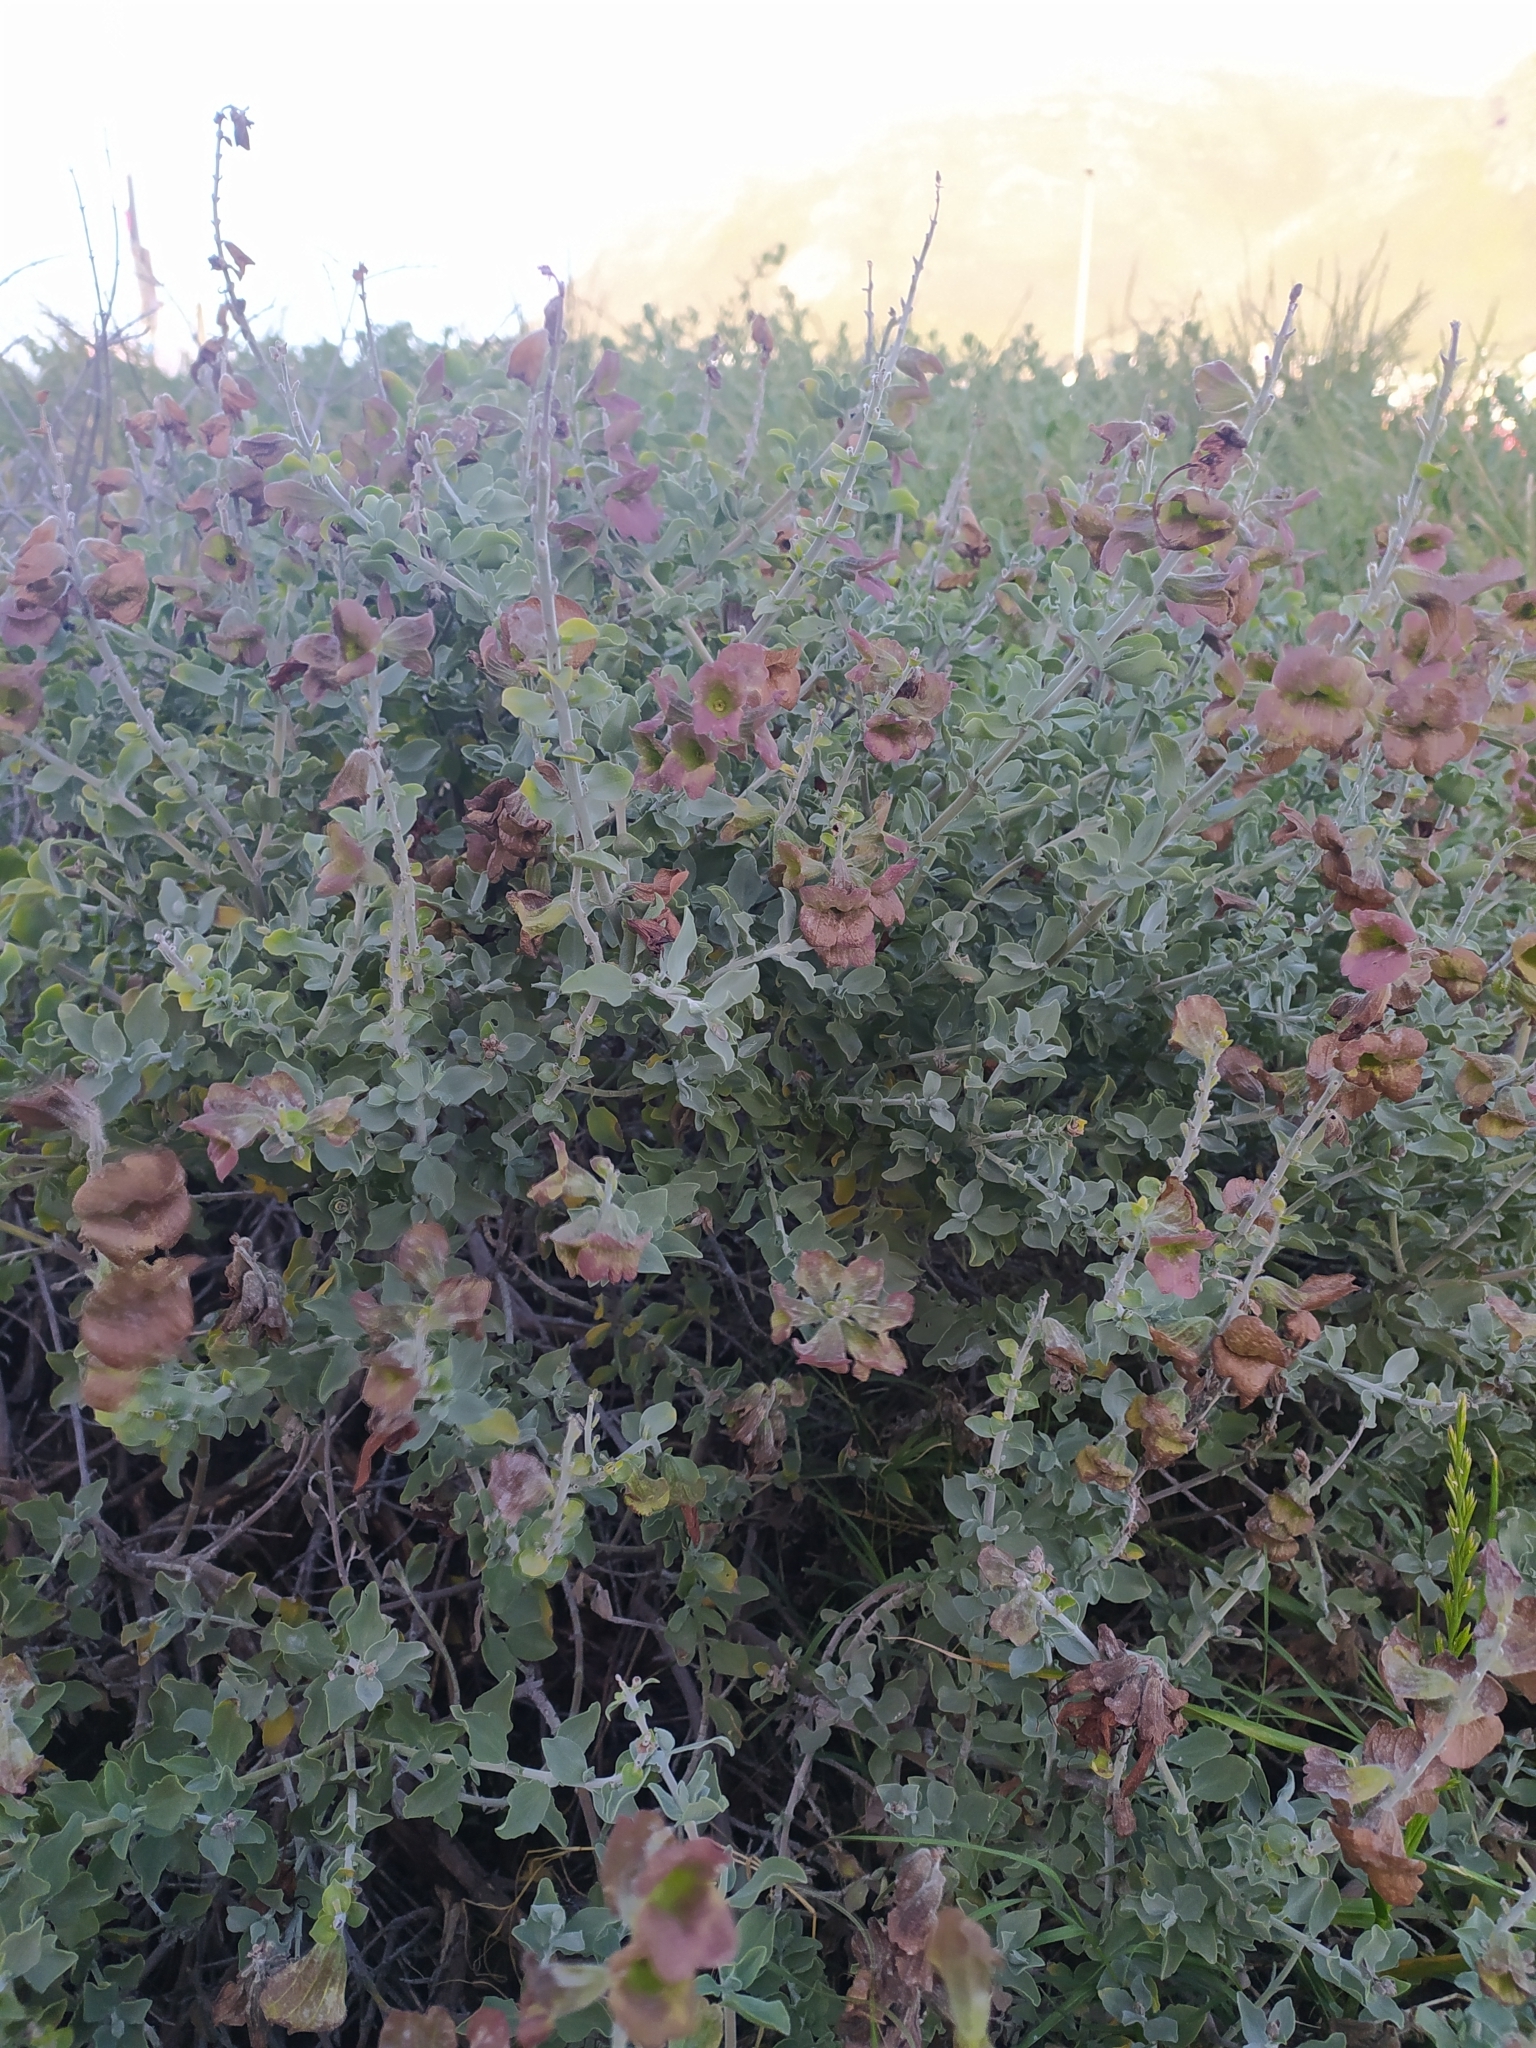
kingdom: Plantae
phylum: Tracheophyta
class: Magnoliopsida
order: Lamiales
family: Lamiaceae
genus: Salvia
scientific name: Salvia aurea
